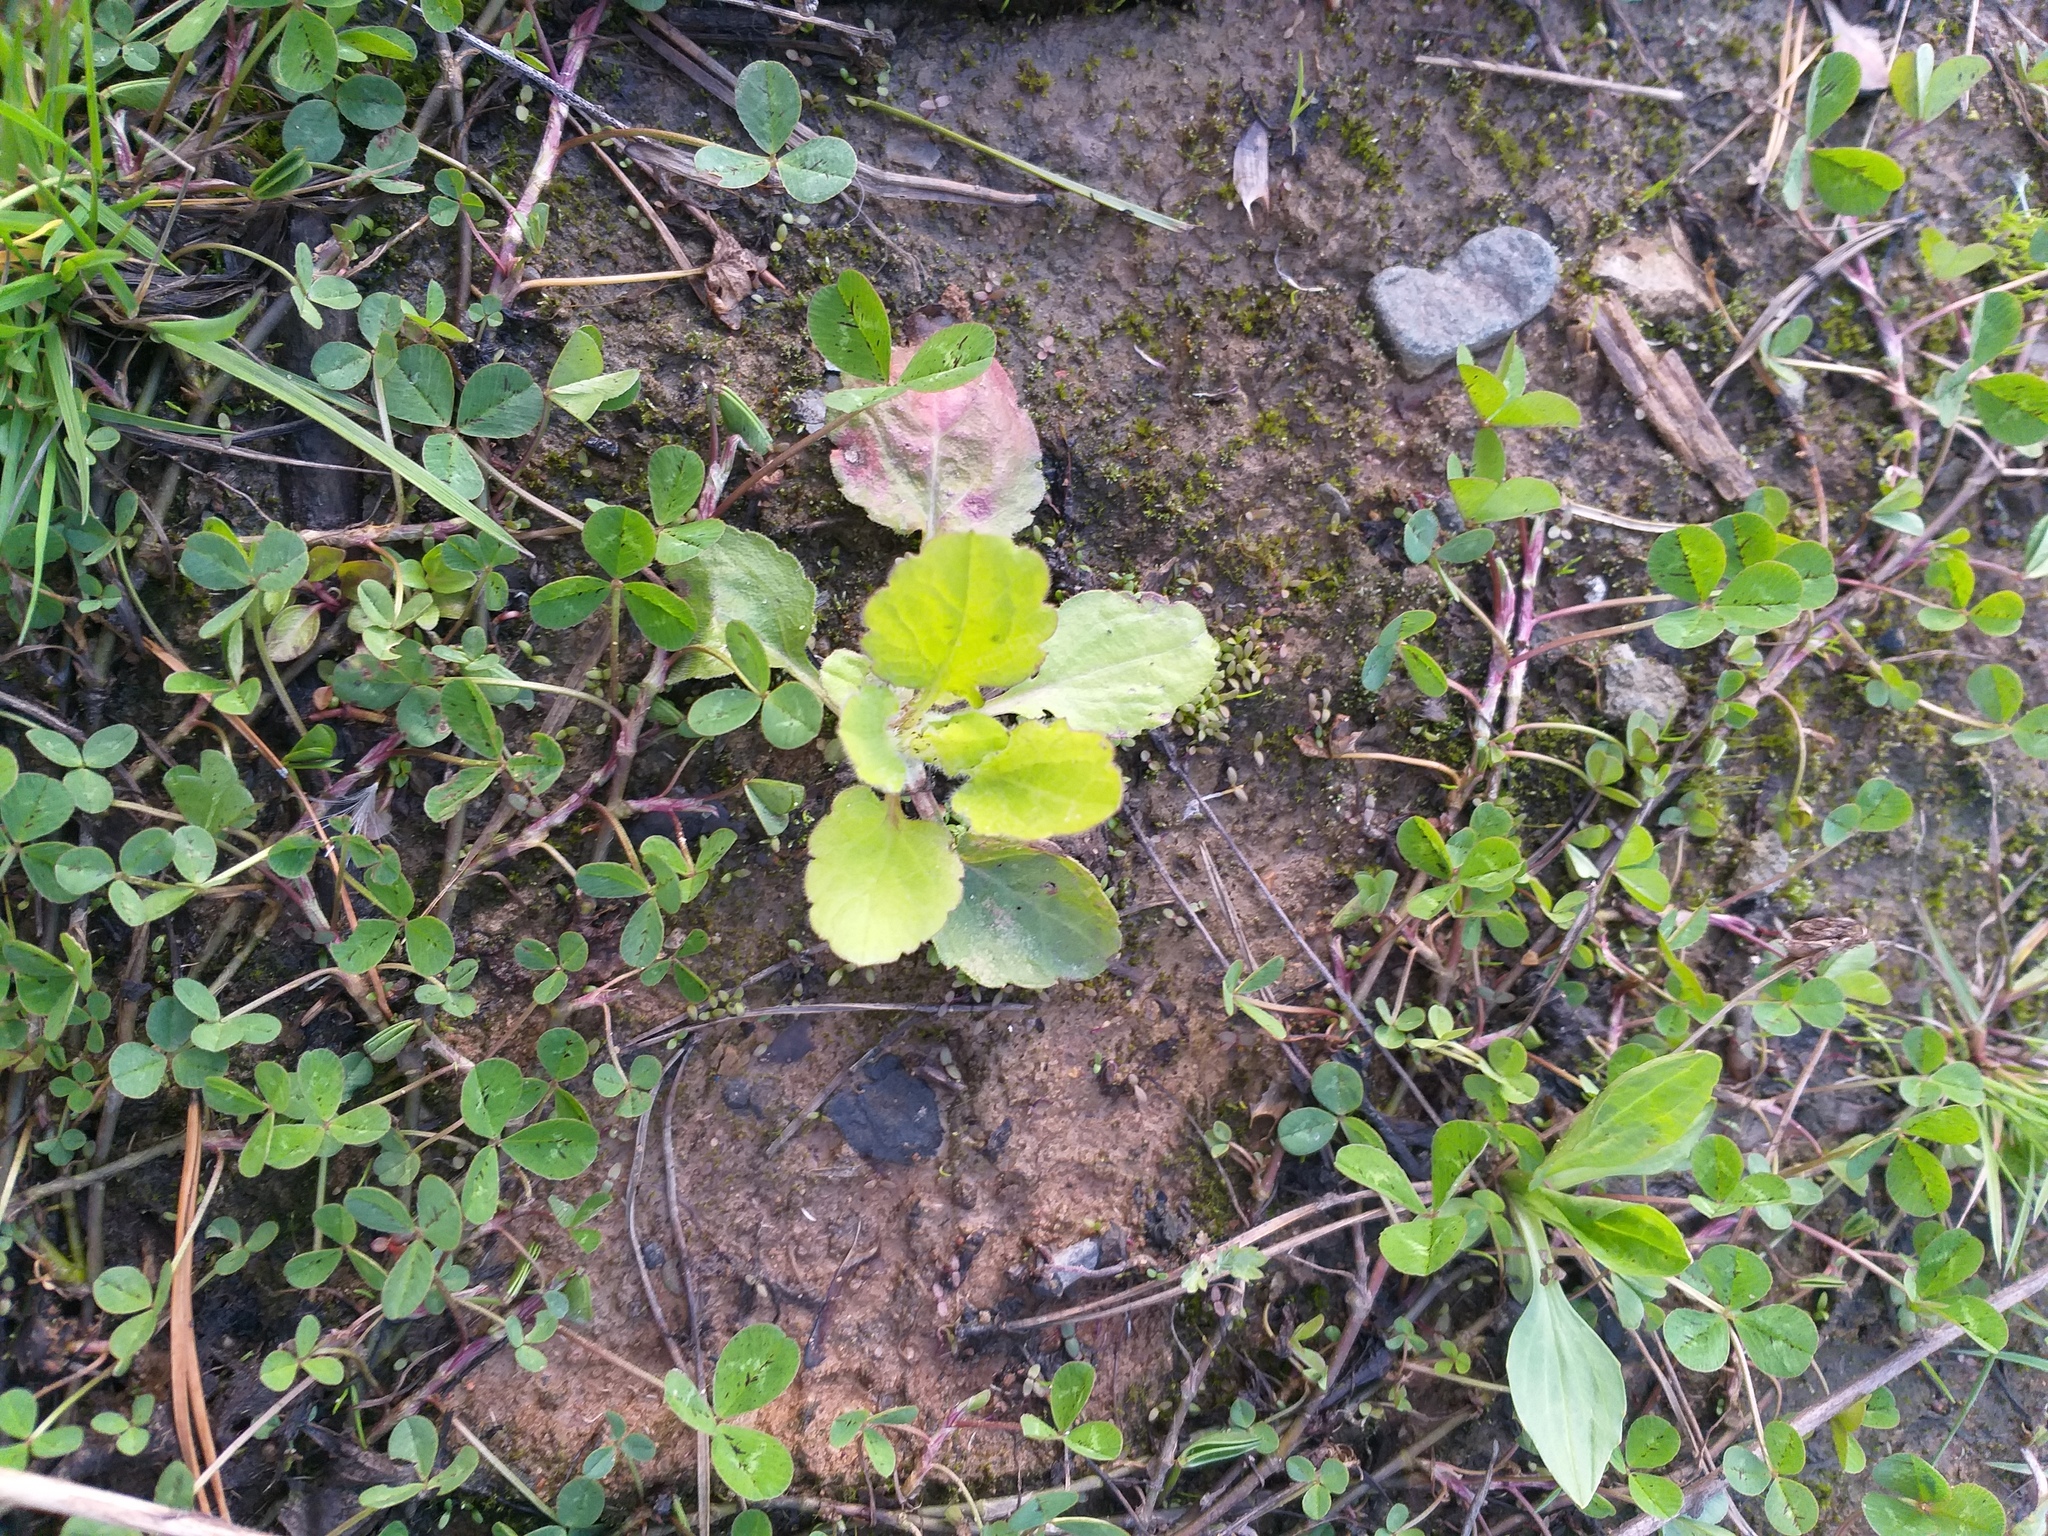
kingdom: Plantae
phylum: Tracheophyta
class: Magnoliopsida
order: Asterales
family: Asteraceae
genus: Erigeron
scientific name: Erigeron annuus
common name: Tall fleabane
